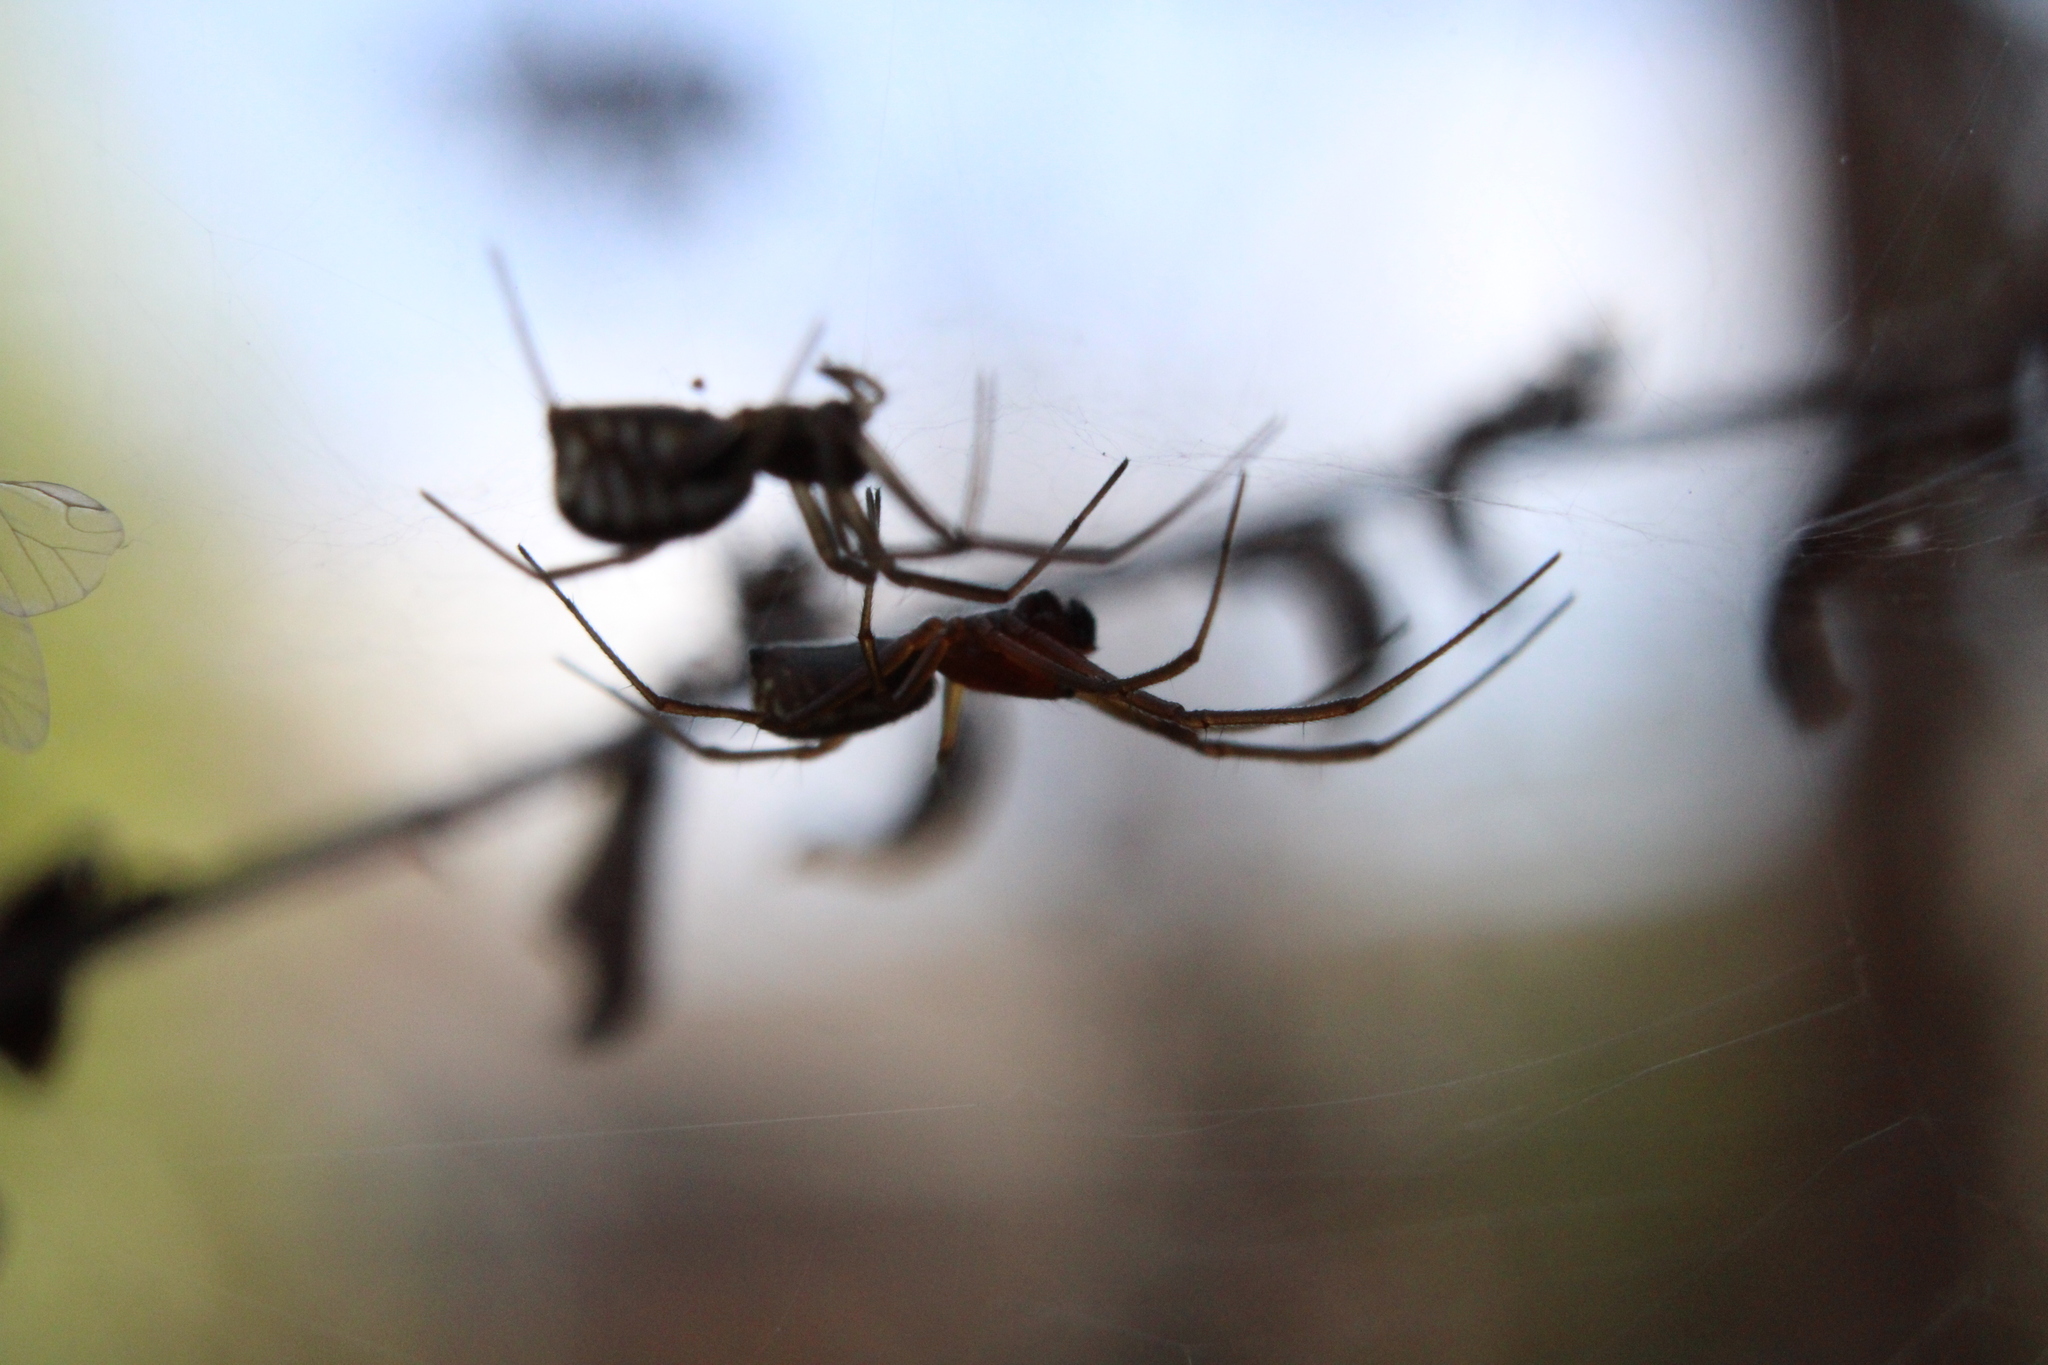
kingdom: Animalia
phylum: Arthropoda
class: Arachnida
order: Araneae
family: Linyphiidae
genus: Frontinella
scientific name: Frontinella pyramitela
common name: Bowl-and-doily spider
